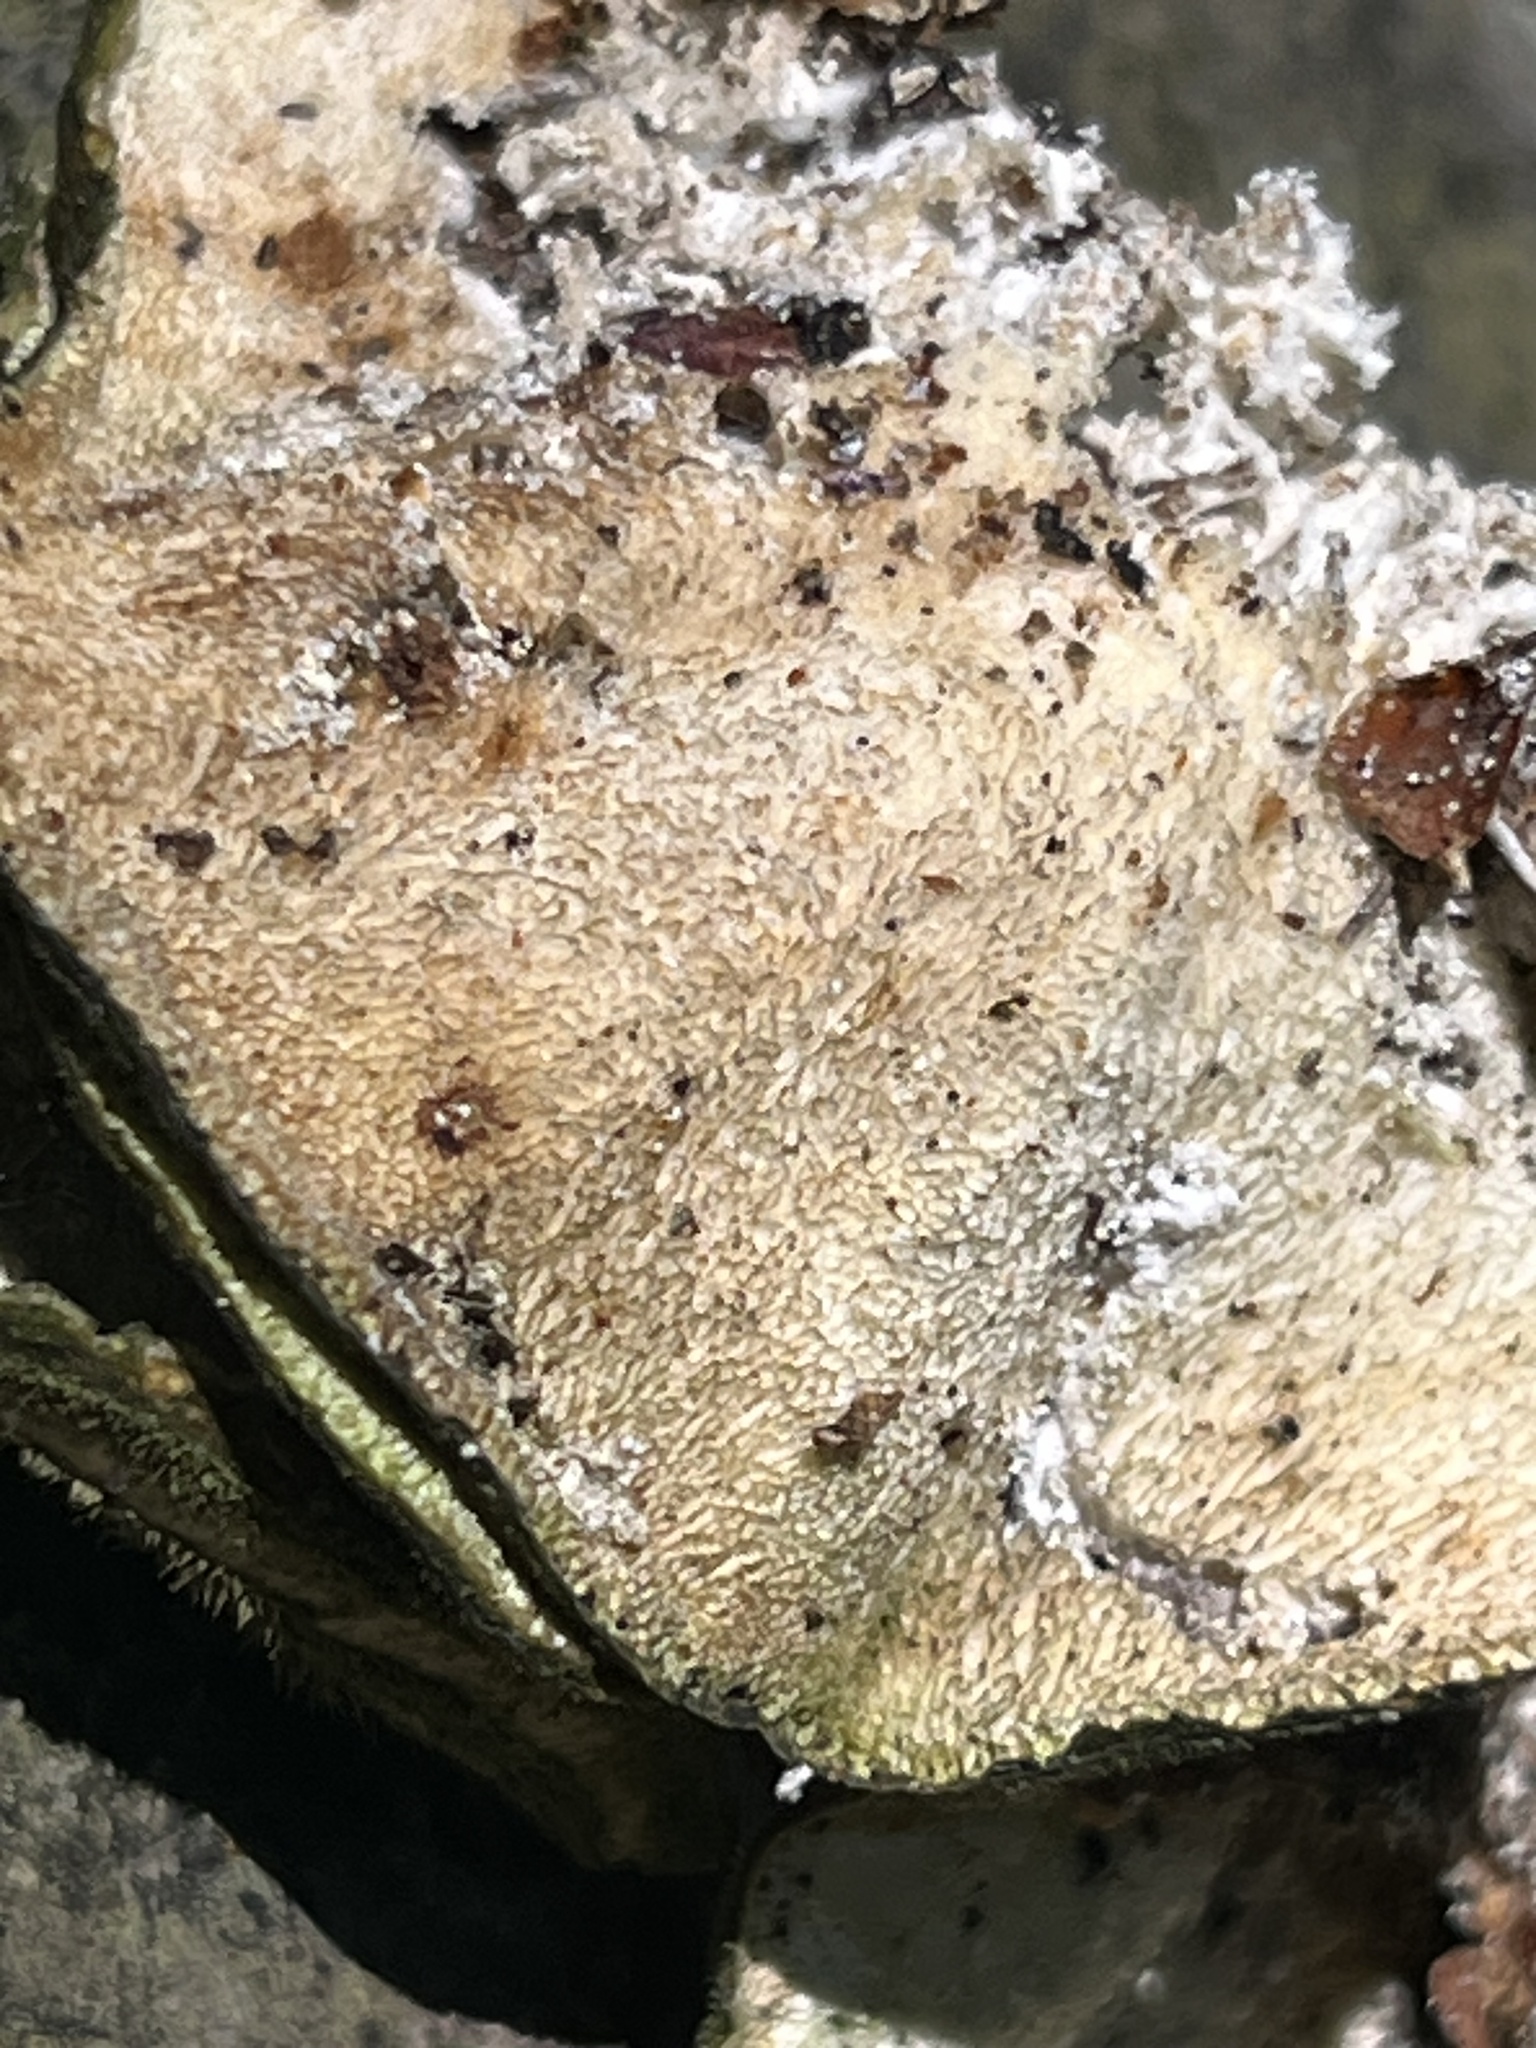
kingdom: Fungi
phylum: Basidiomycota
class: Agaricomycetes
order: Polyporales
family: Polyporaceae
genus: Trametes
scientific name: Trametes gibbosa
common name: Lumpy bracket
